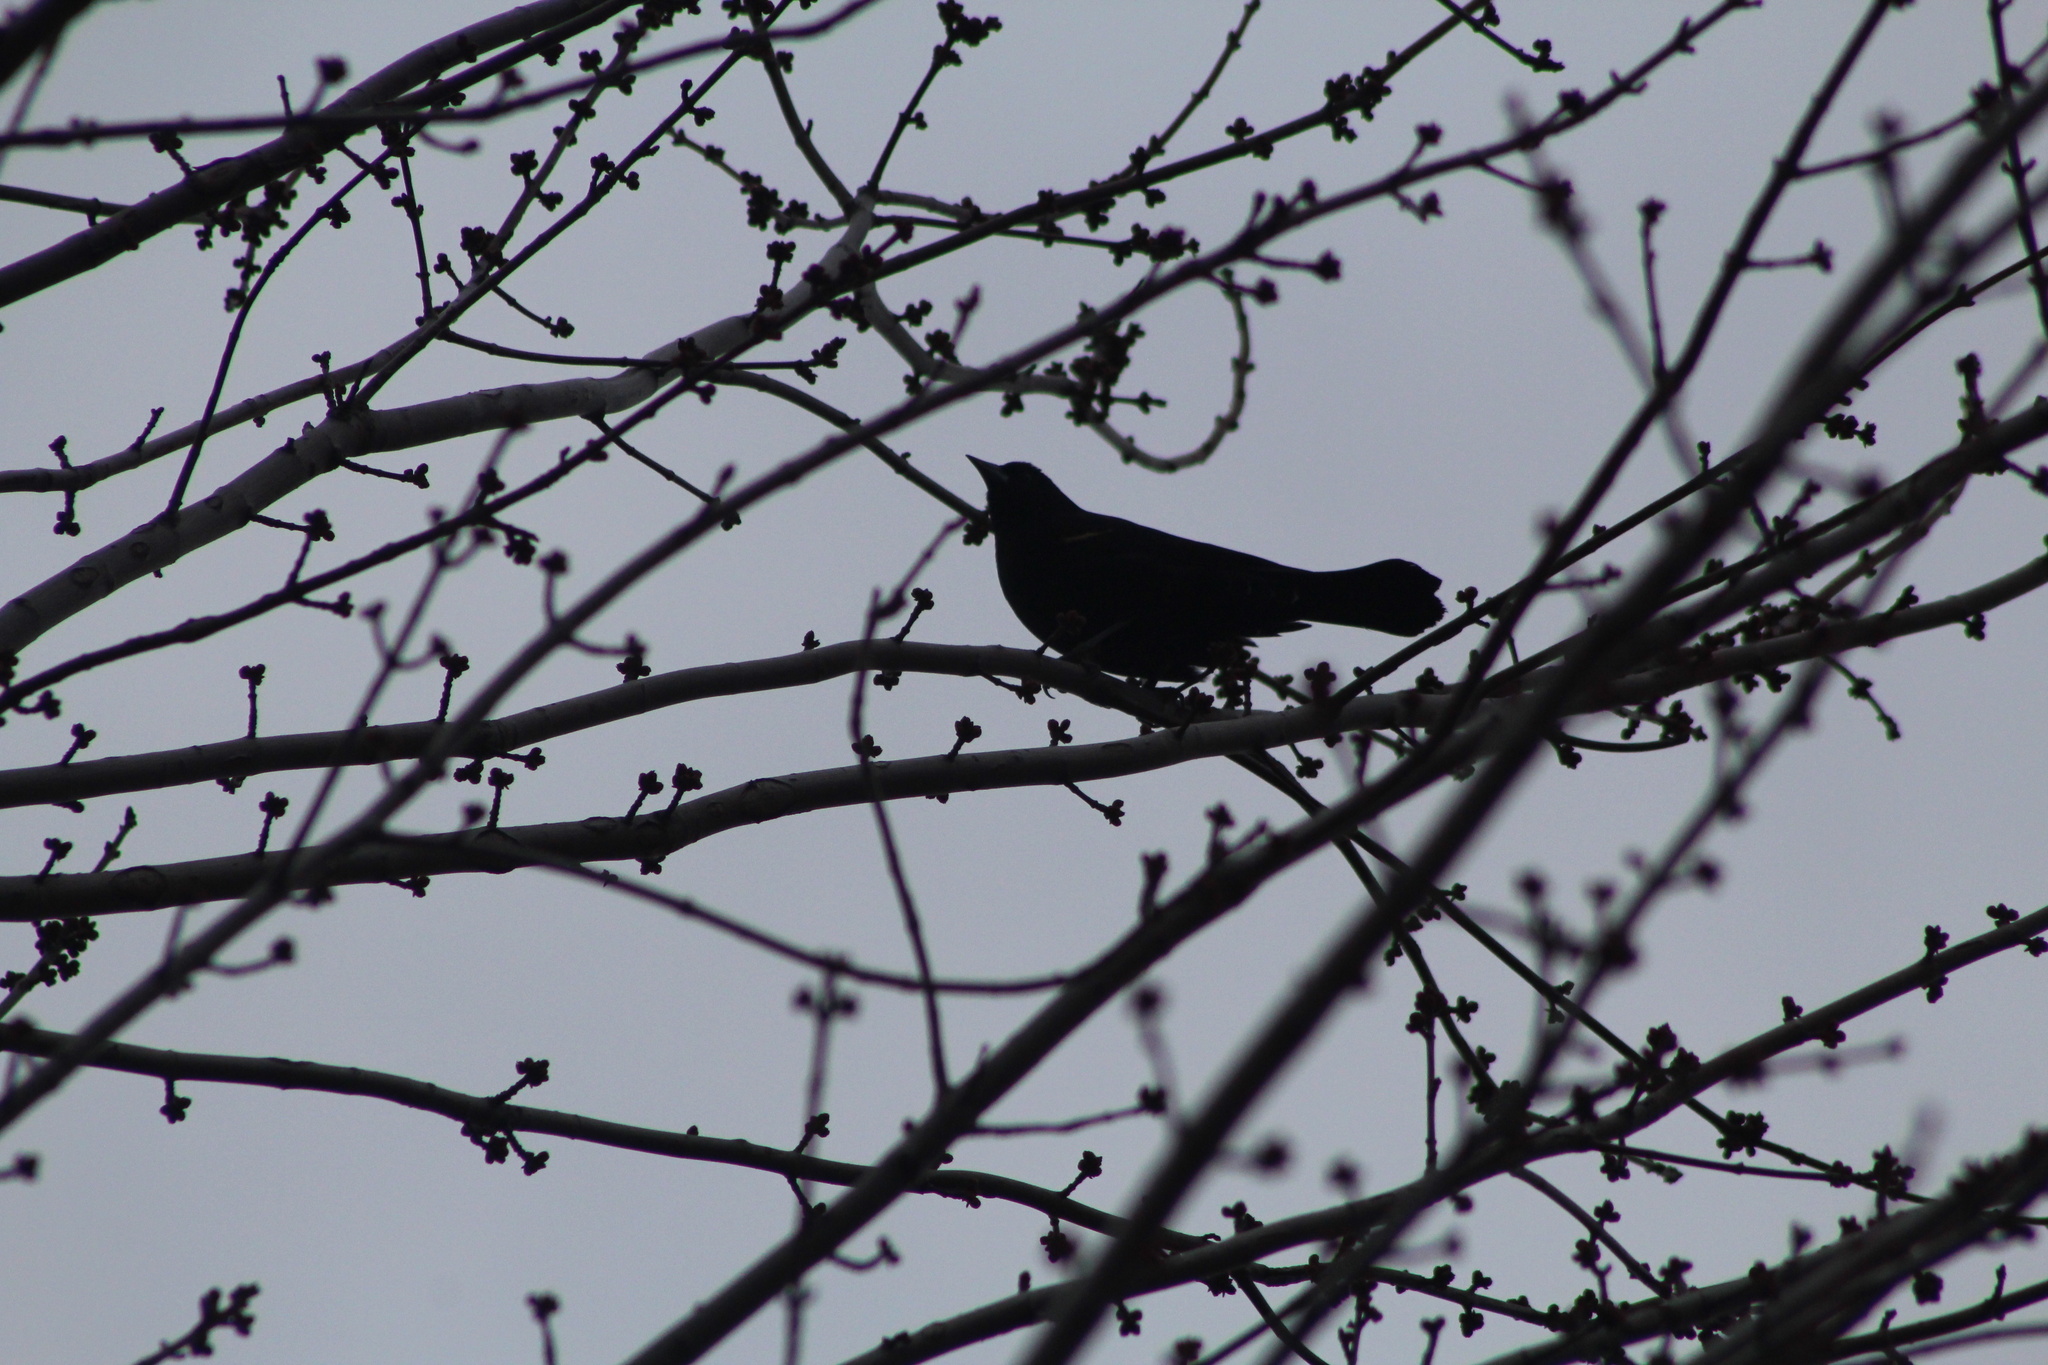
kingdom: Animalia
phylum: Chordata
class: Aves
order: Passeriformes
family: Icteridae
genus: Agelaius
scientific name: Agelaius phoeniceus
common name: Red-winged blackbird
